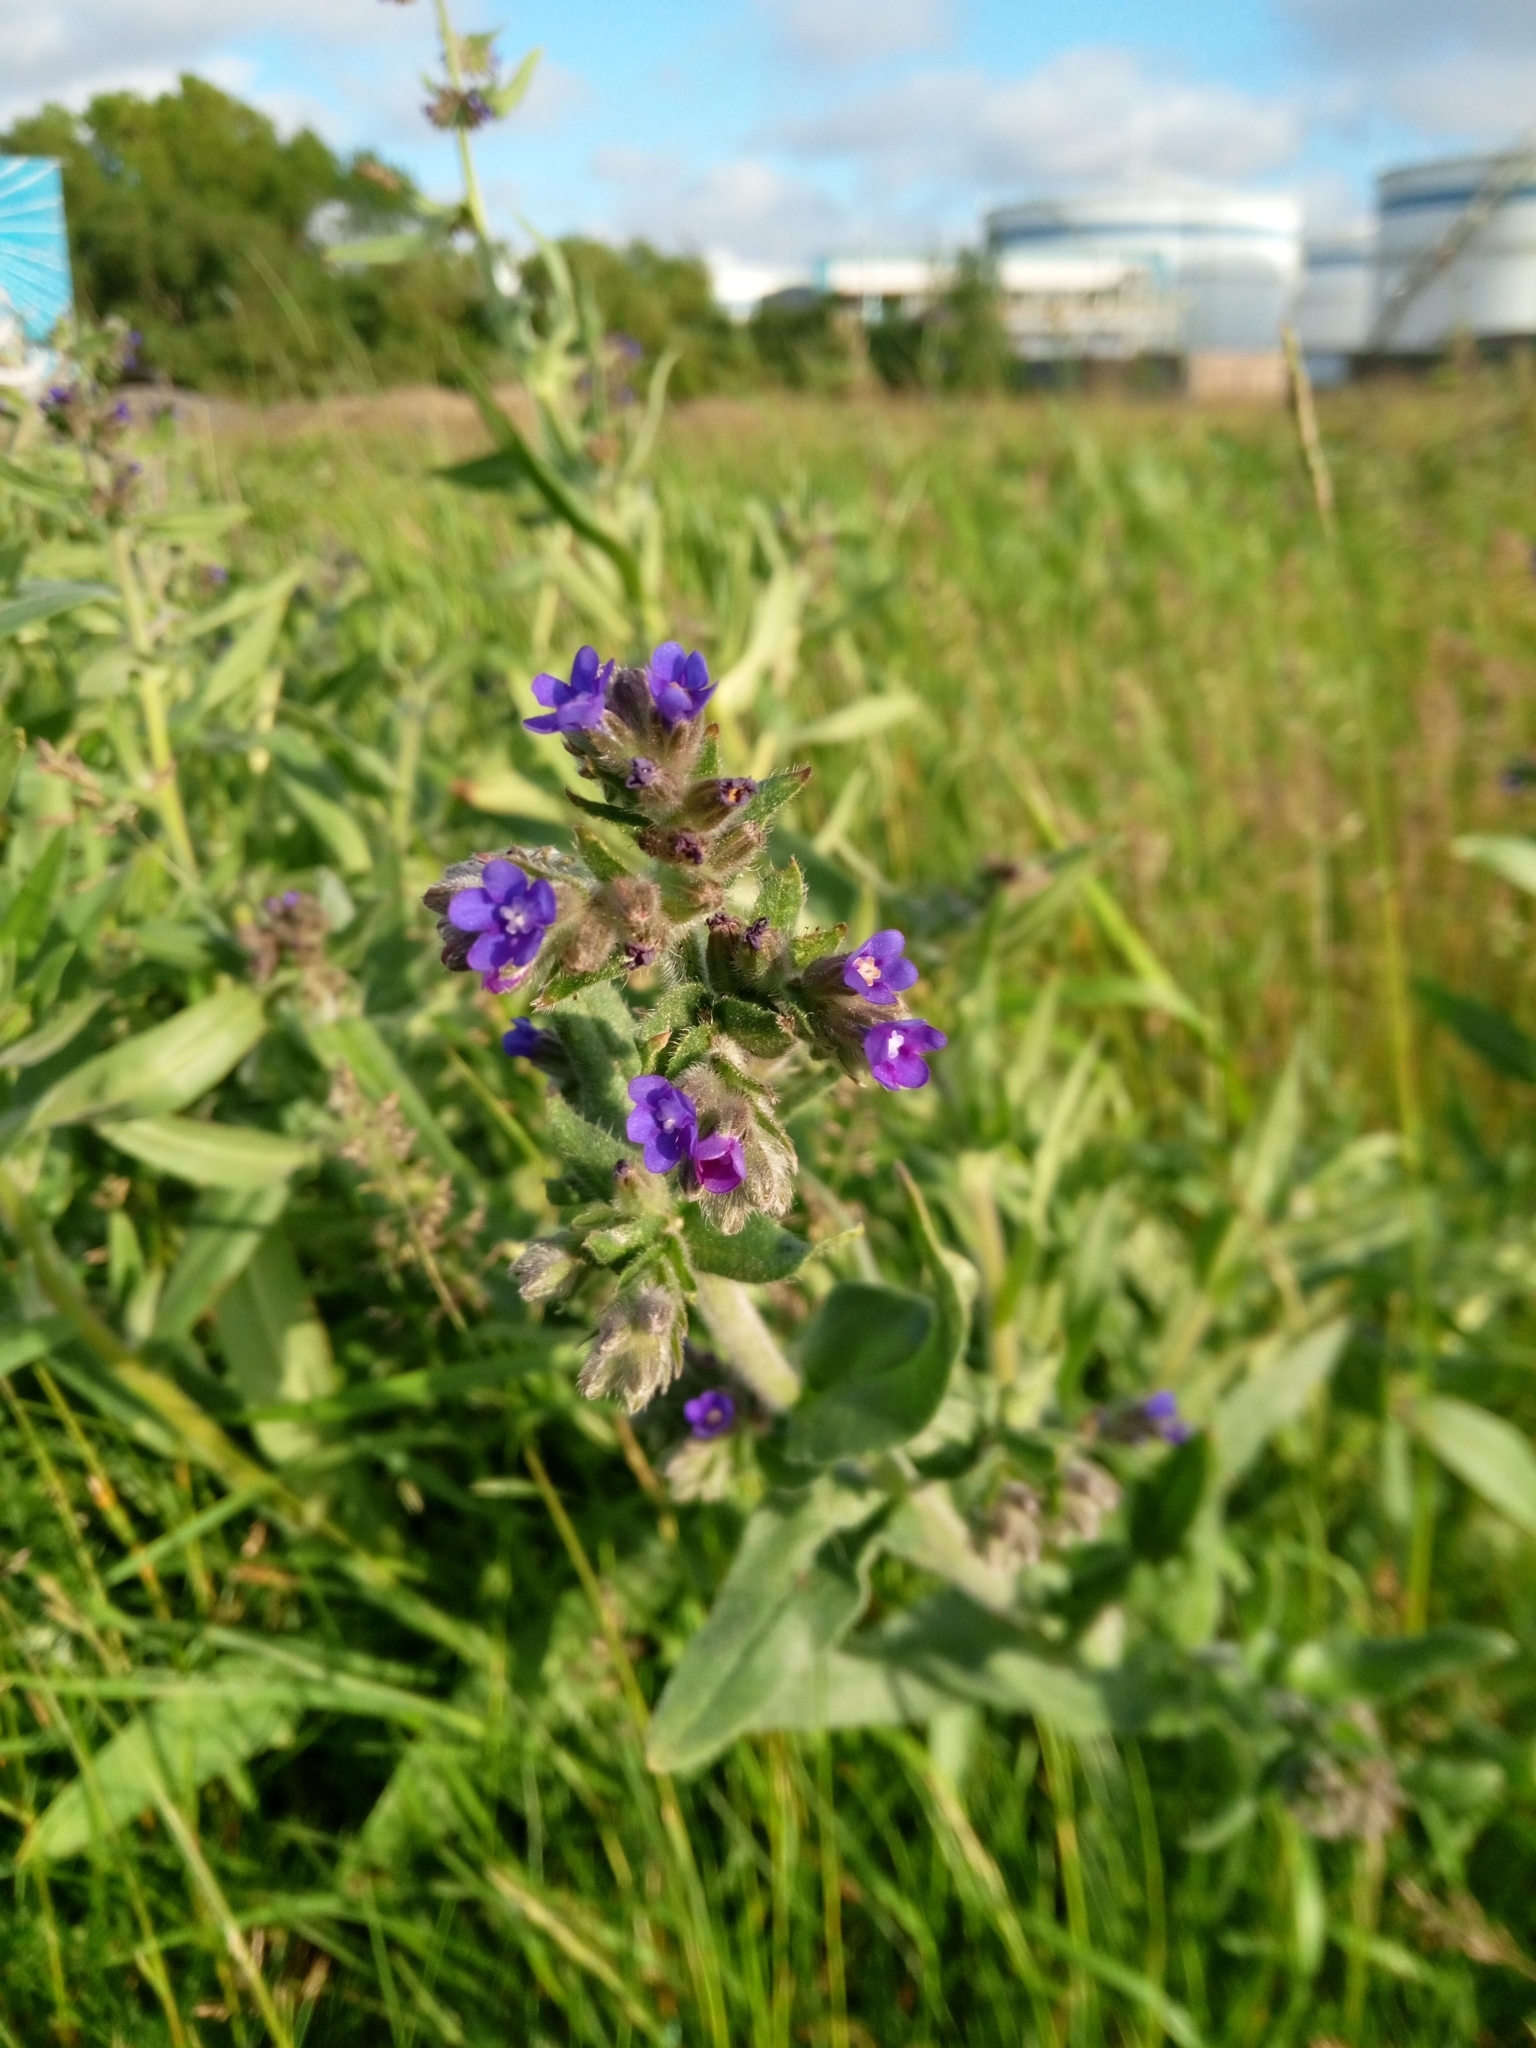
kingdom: Plantae
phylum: Tracheophyta
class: Magnoliopsida
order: Boraginales
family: Boraginaceae
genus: Anchusa
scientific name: Anchusa officinalis
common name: Alkanet
